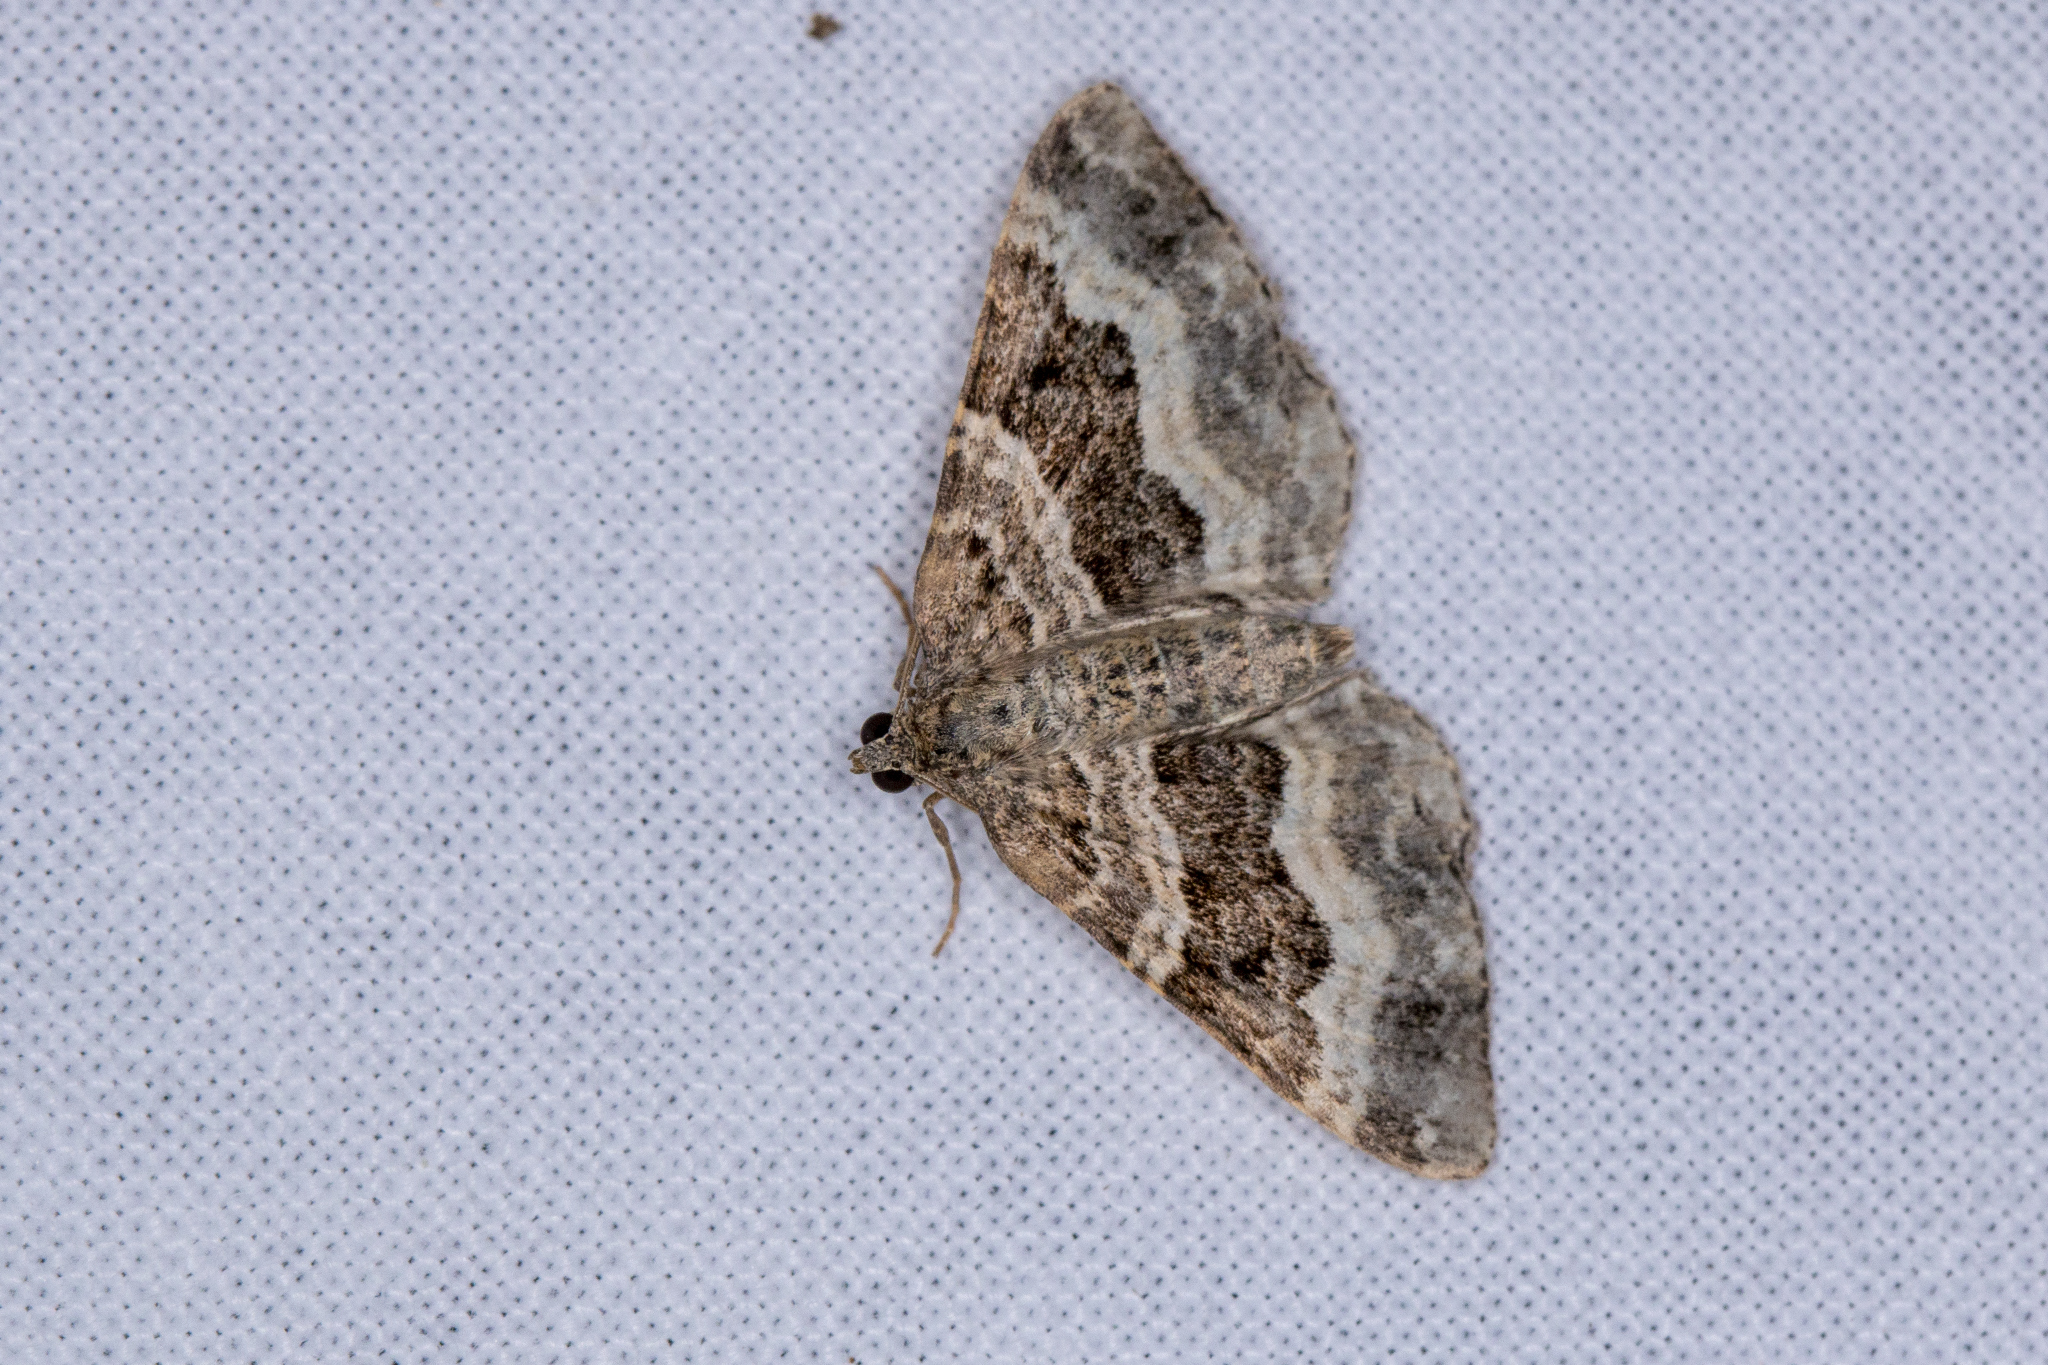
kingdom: Animalia
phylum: Arthropoda
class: Insecta
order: Lepidoptera
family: Geometridae
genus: Epirrhoe
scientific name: Epirrhoe alternata
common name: Common carpet
